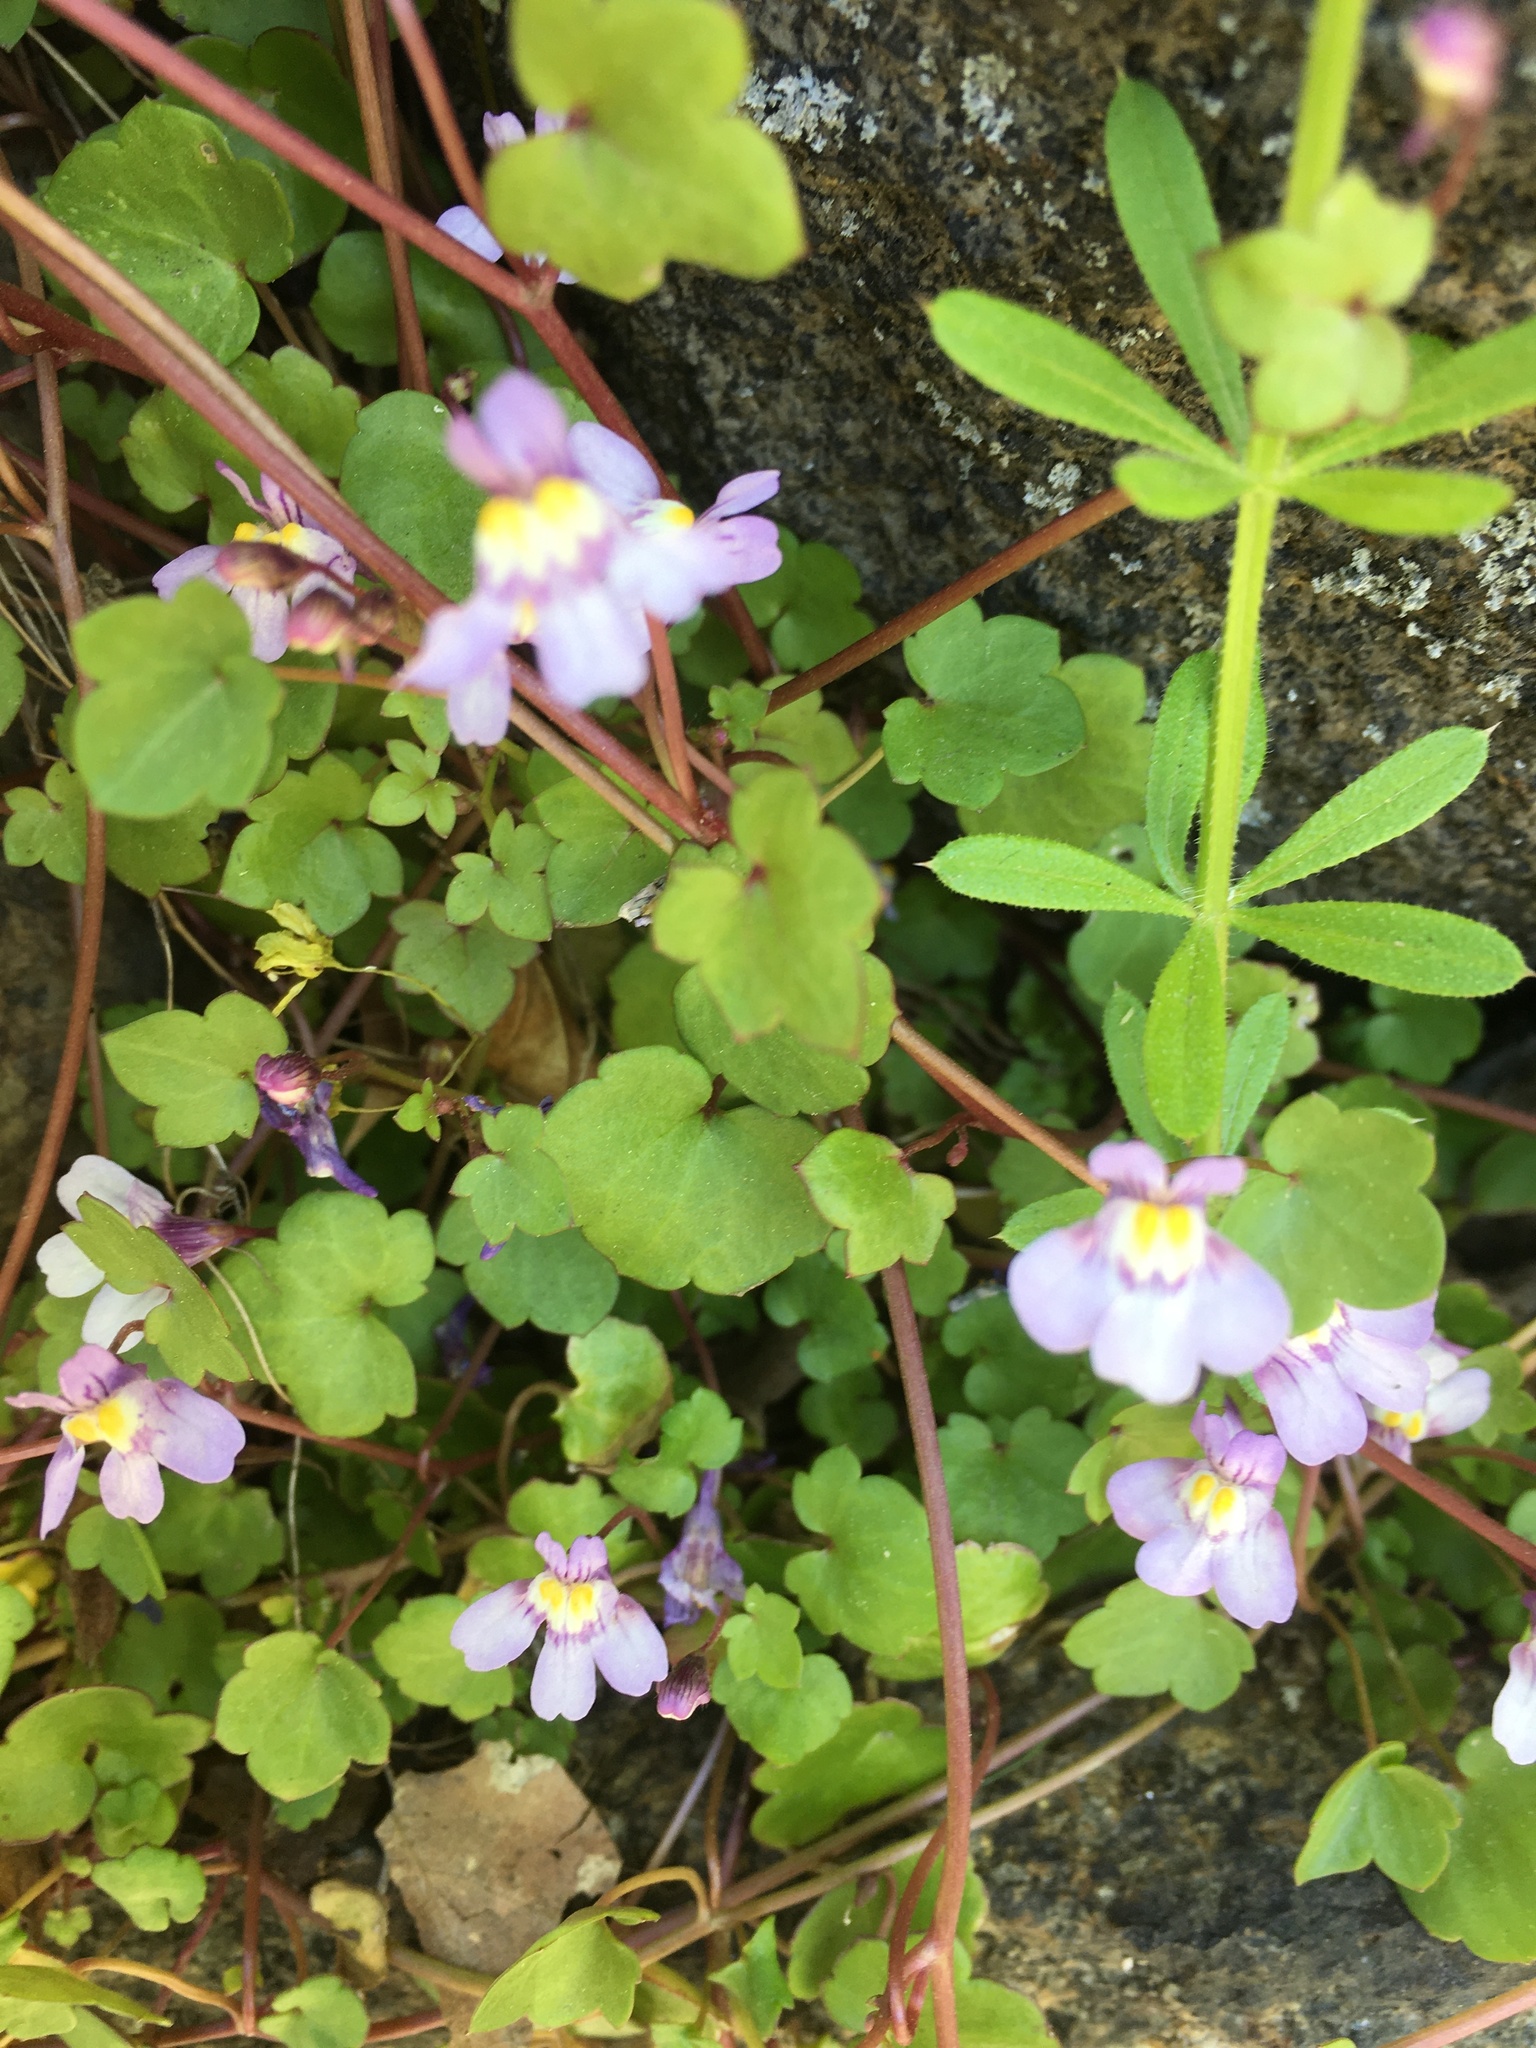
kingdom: Plantae
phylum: Tracheophyta
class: Magnoliopsida
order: Lamiales
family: Plantaginaceae
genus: Cymbalaria
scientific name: Cymbalaria muralis
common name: Ivy-leaved toadflax
